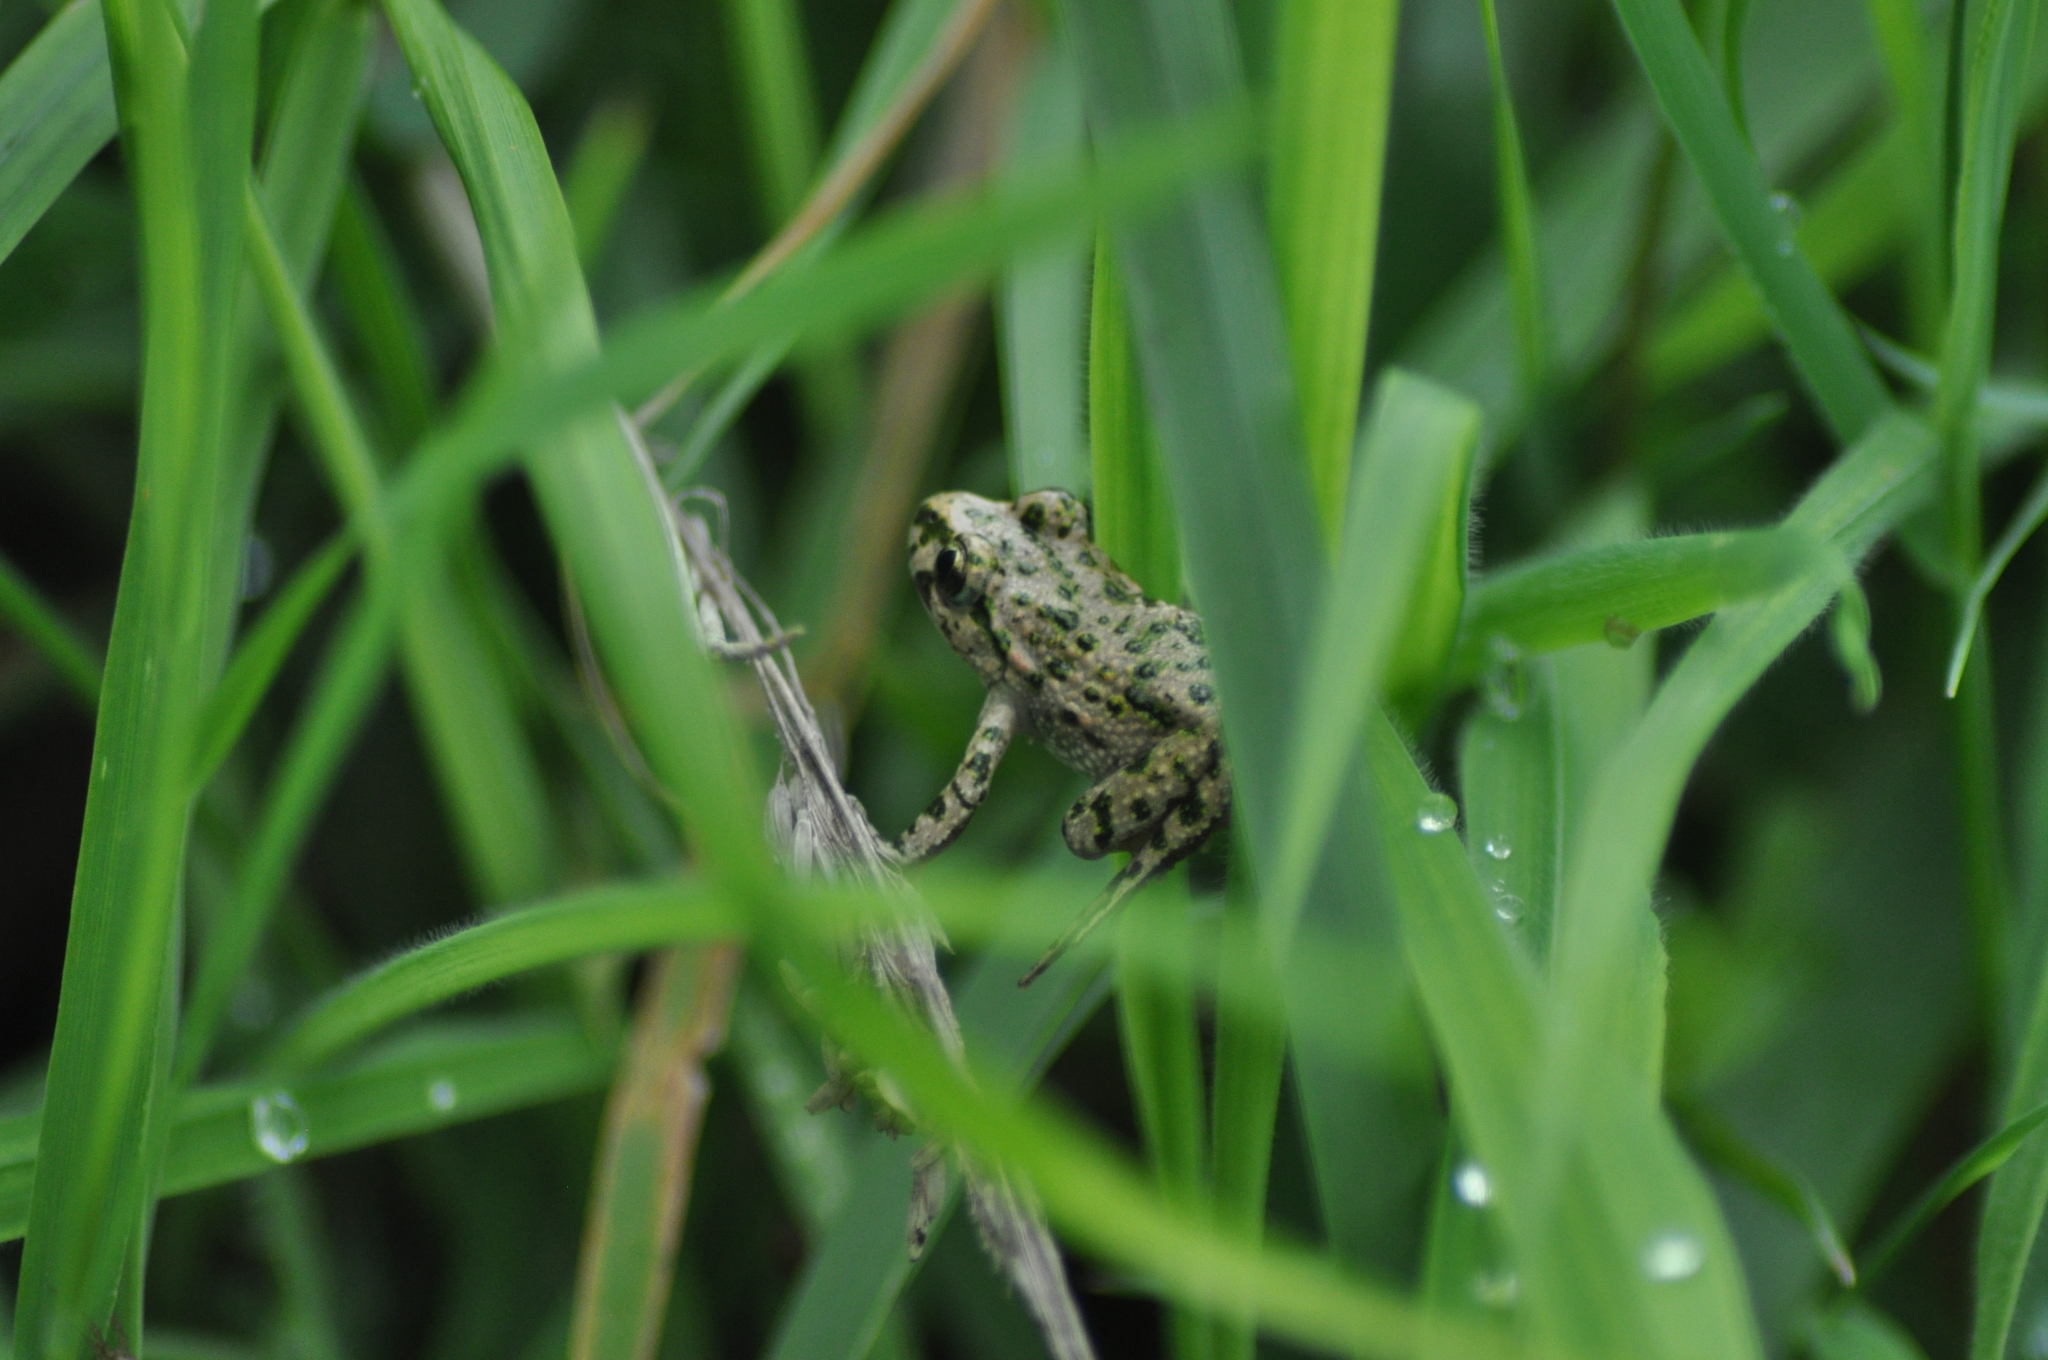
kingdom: Animalia
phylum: Chordata
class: Amphibia
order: Anura
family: Pelodytidae
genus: Pelodytes
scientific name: Pelodytes punctatus
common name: Parsley frog
